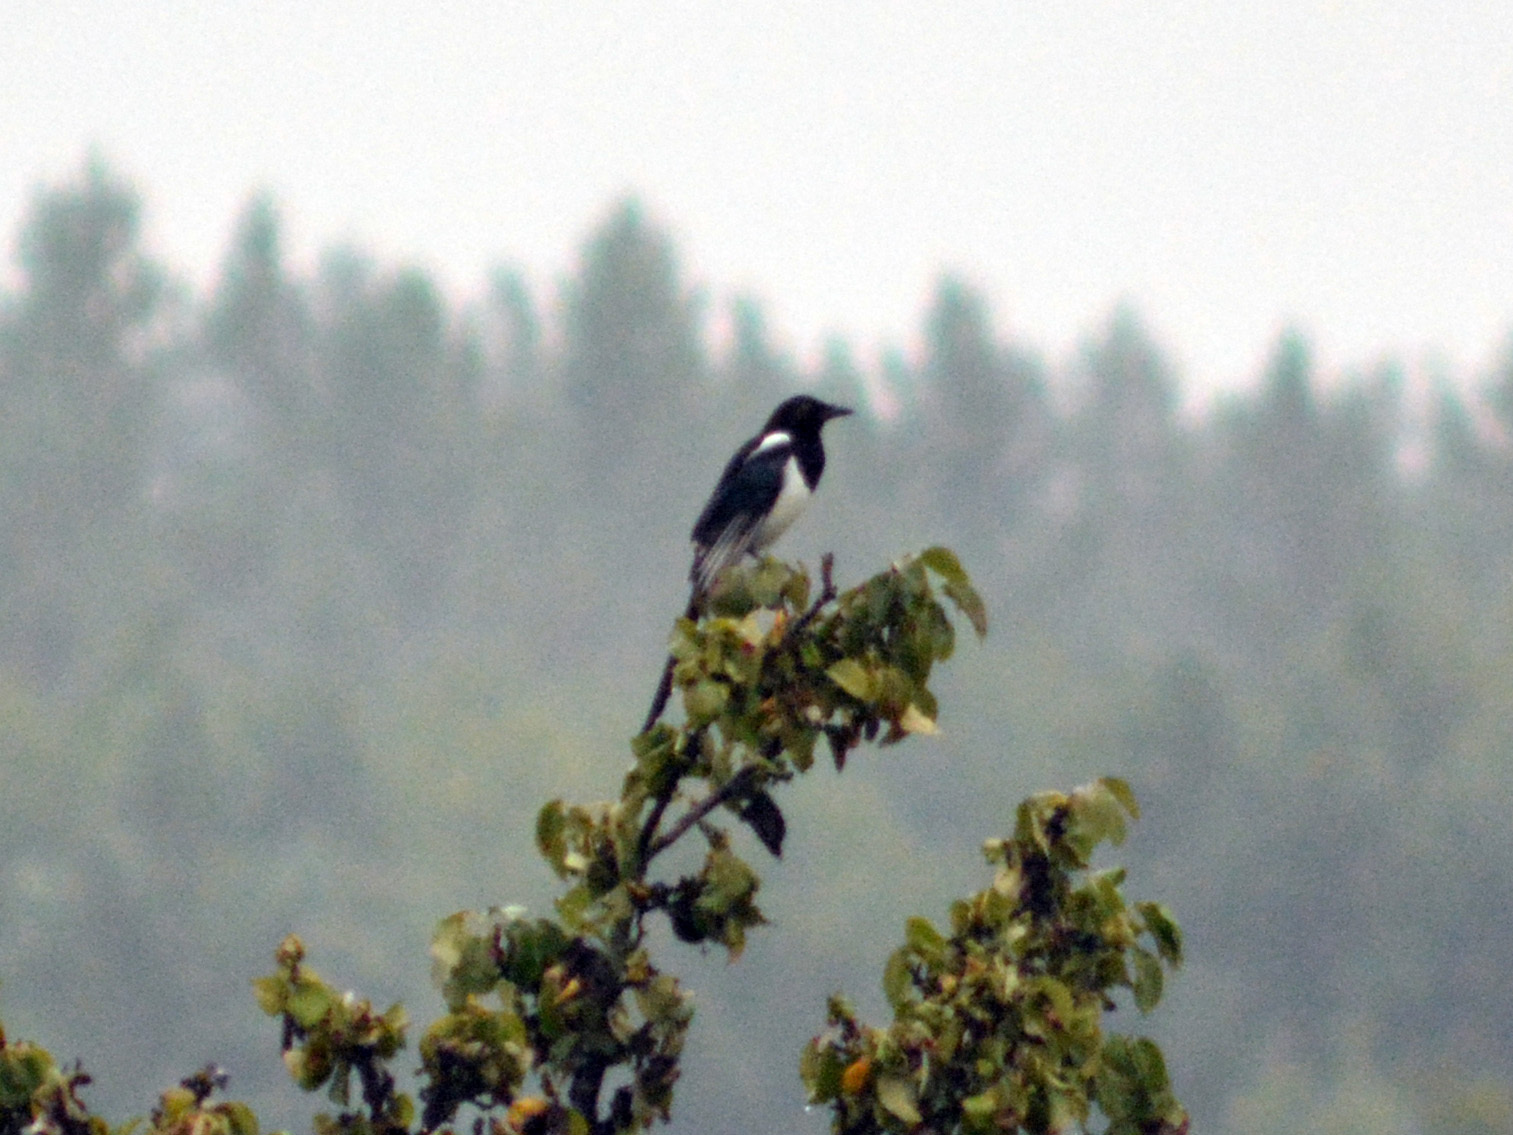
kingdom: Animalia
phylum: Chordata
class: Aves
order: Passeriformes
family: Corvidae
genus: Pica
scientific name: Pica pica
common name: Eurasian magpie
